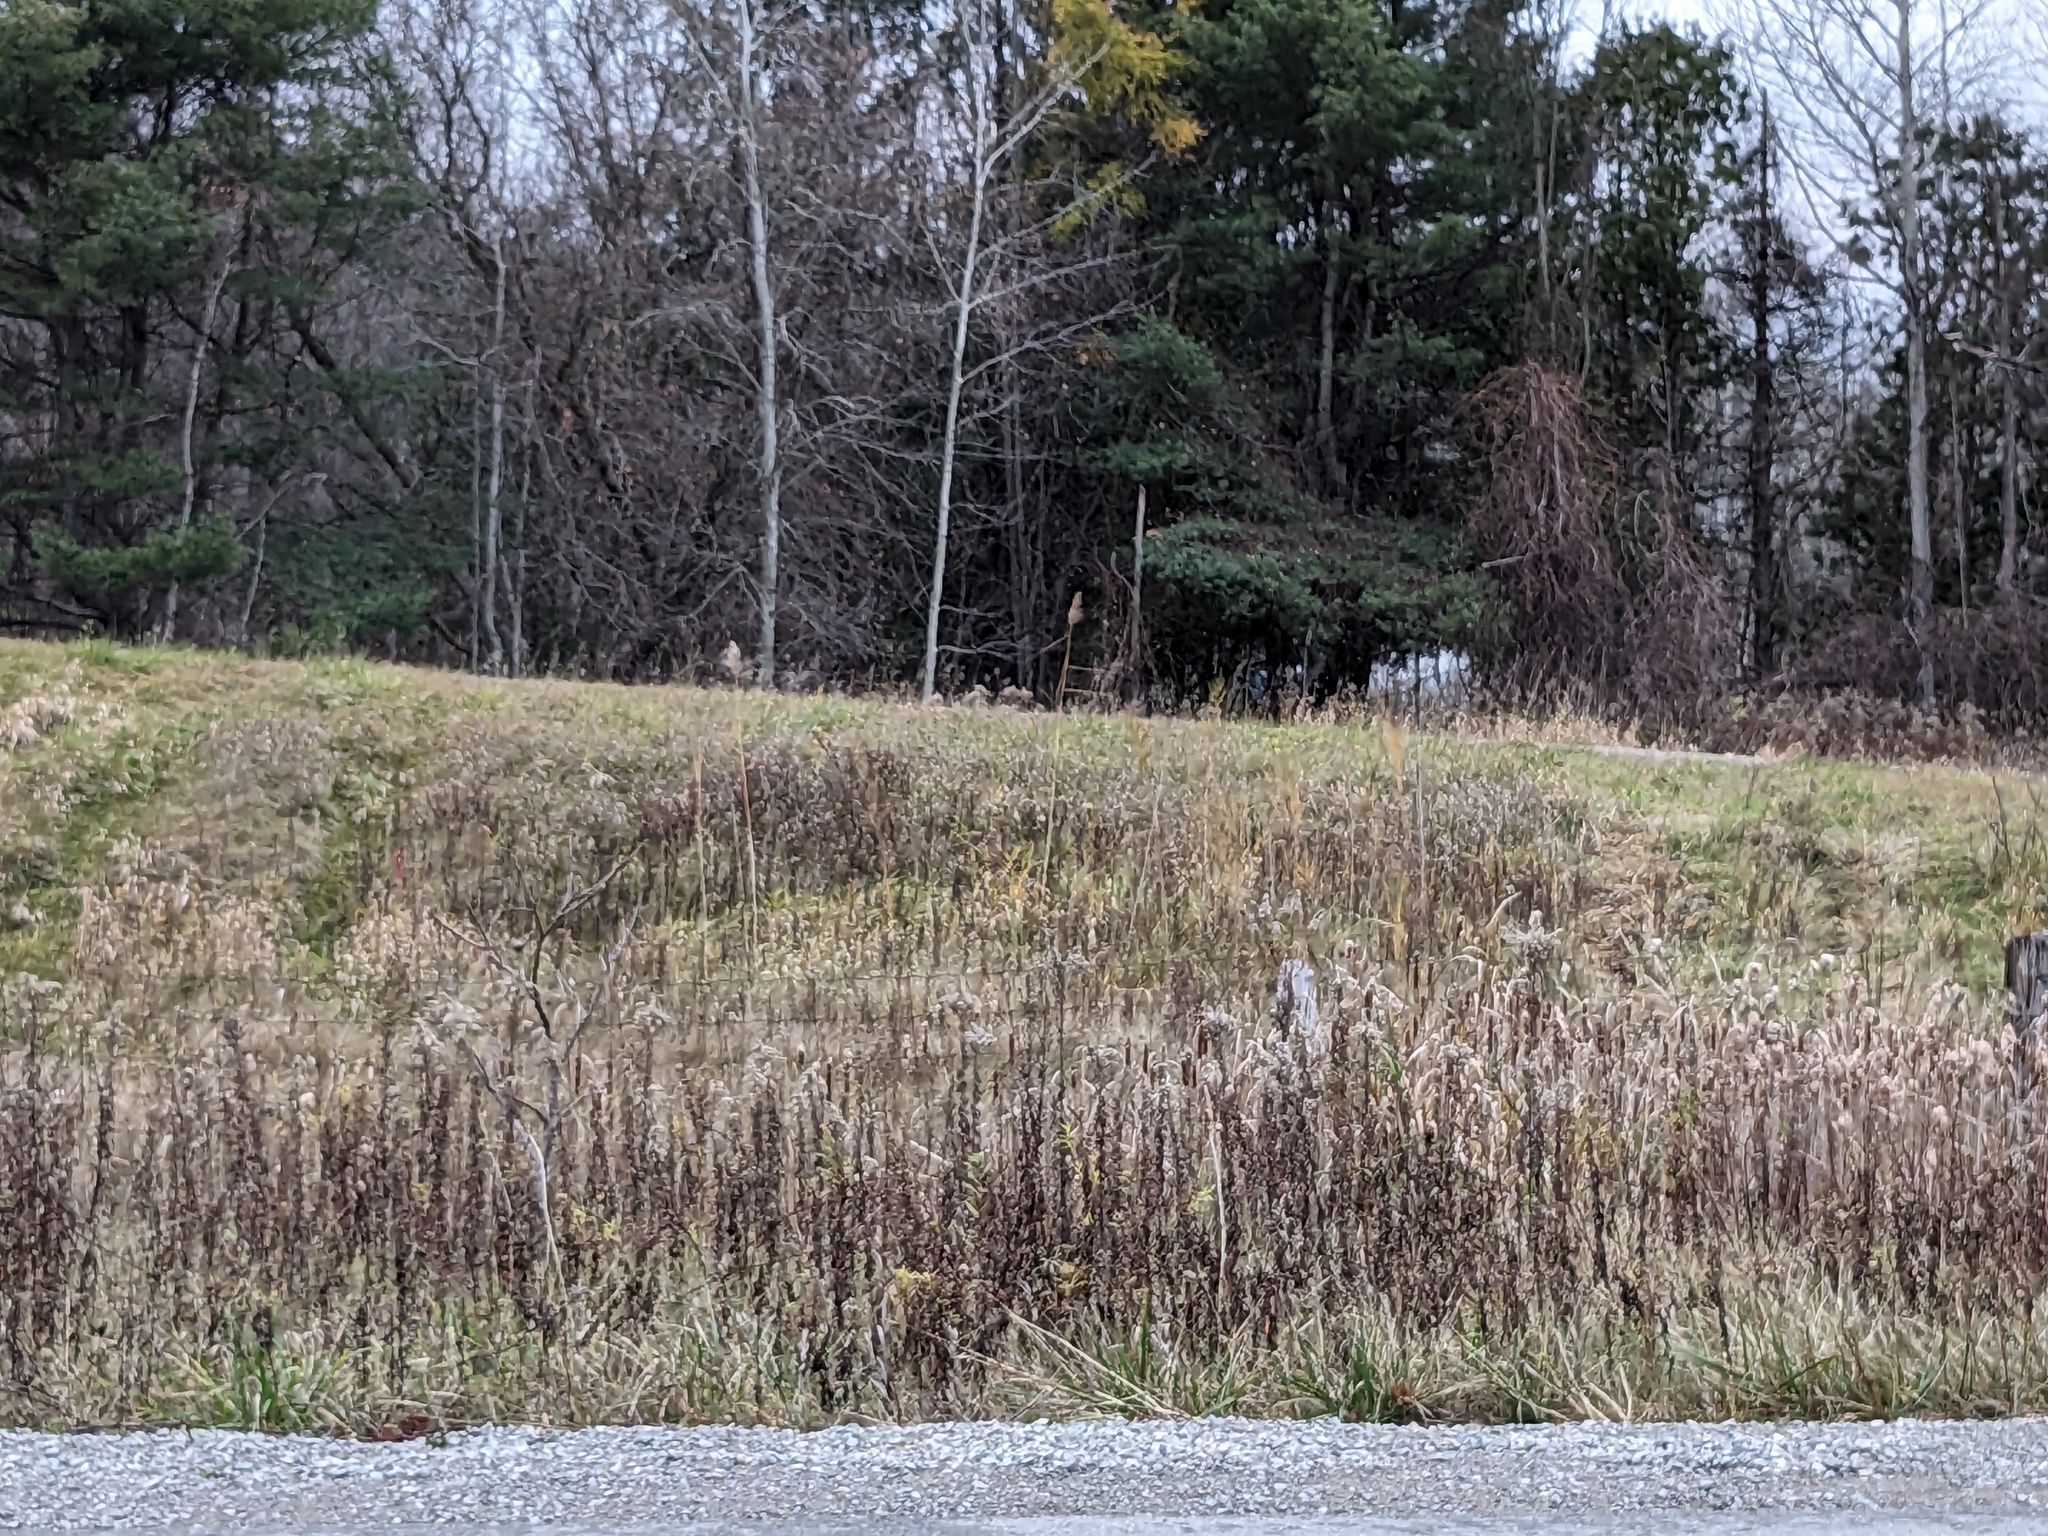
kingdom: Plantae
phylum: Tracheophyta
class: Liliopsida
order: Poales
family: Poaceae
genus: Phragmites
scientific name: Phragmites australis
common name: Common reed
